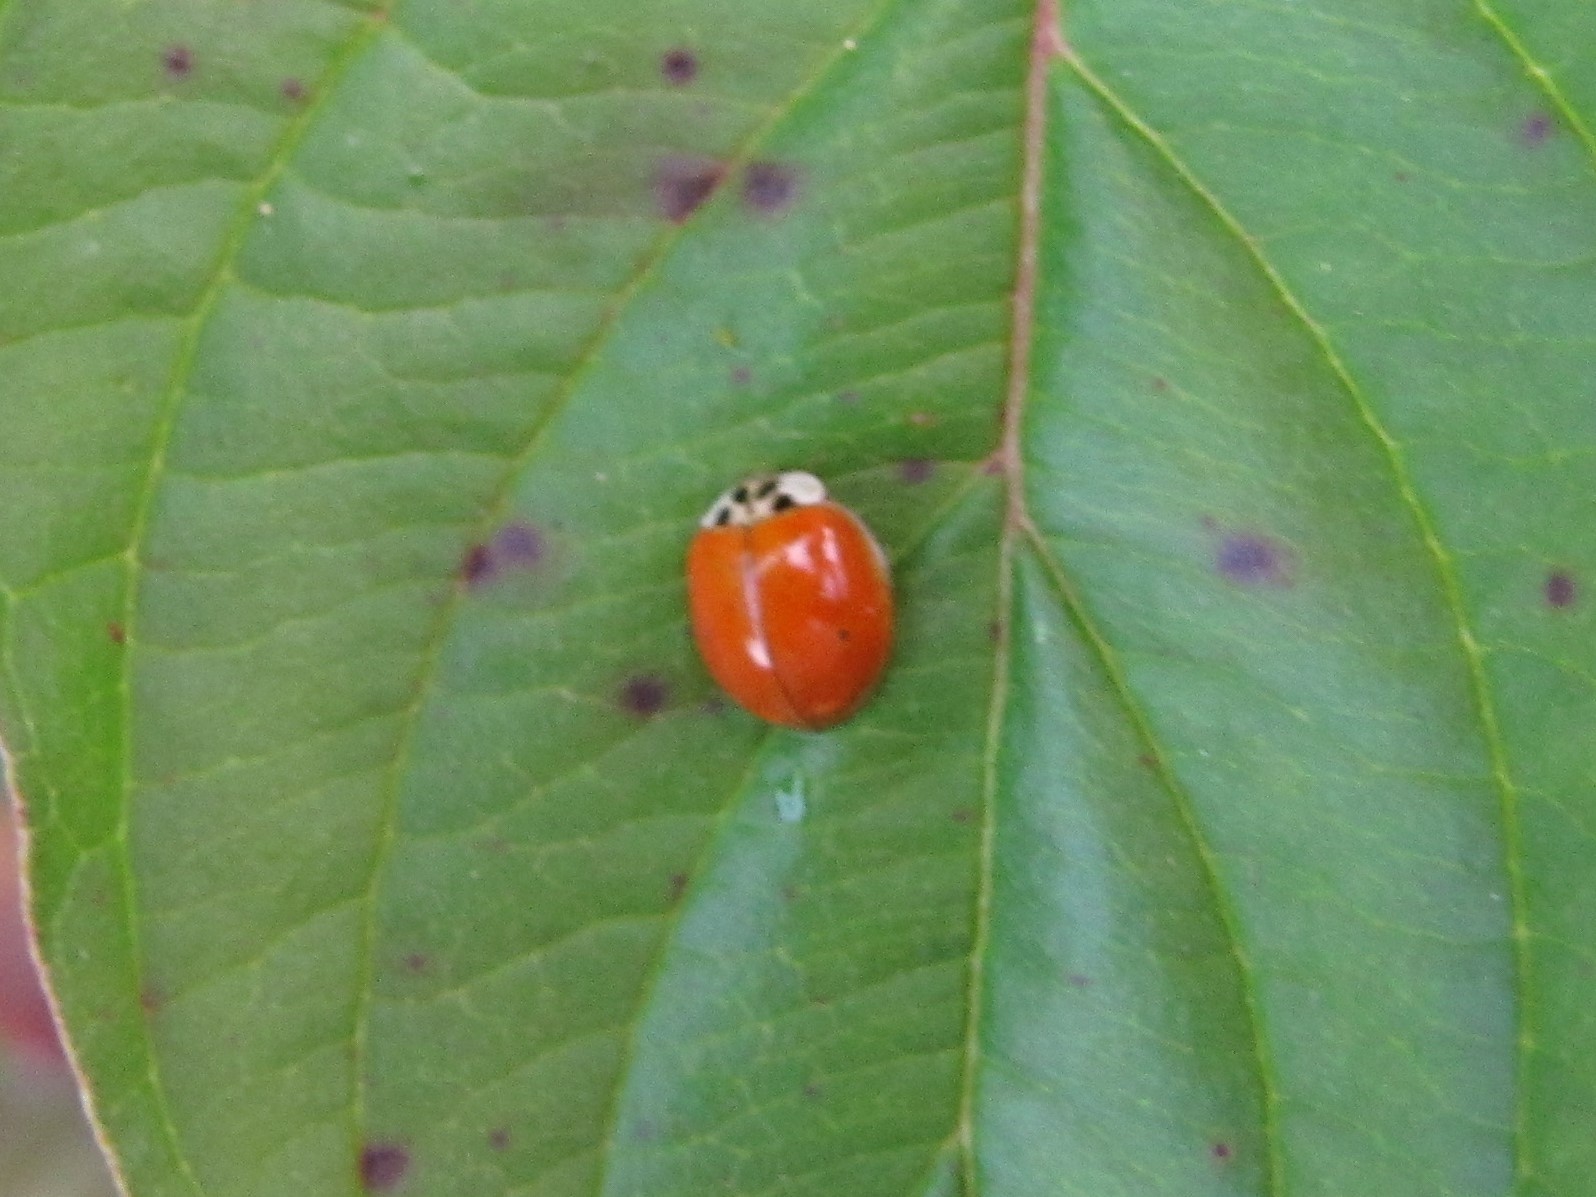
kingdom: Animalia
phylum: Arthropoda
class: Insecta
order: Coleoptera
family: Coccinellidae
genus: Harmonia
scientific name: Harmonia axyridis
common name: Harlequin ladybird
